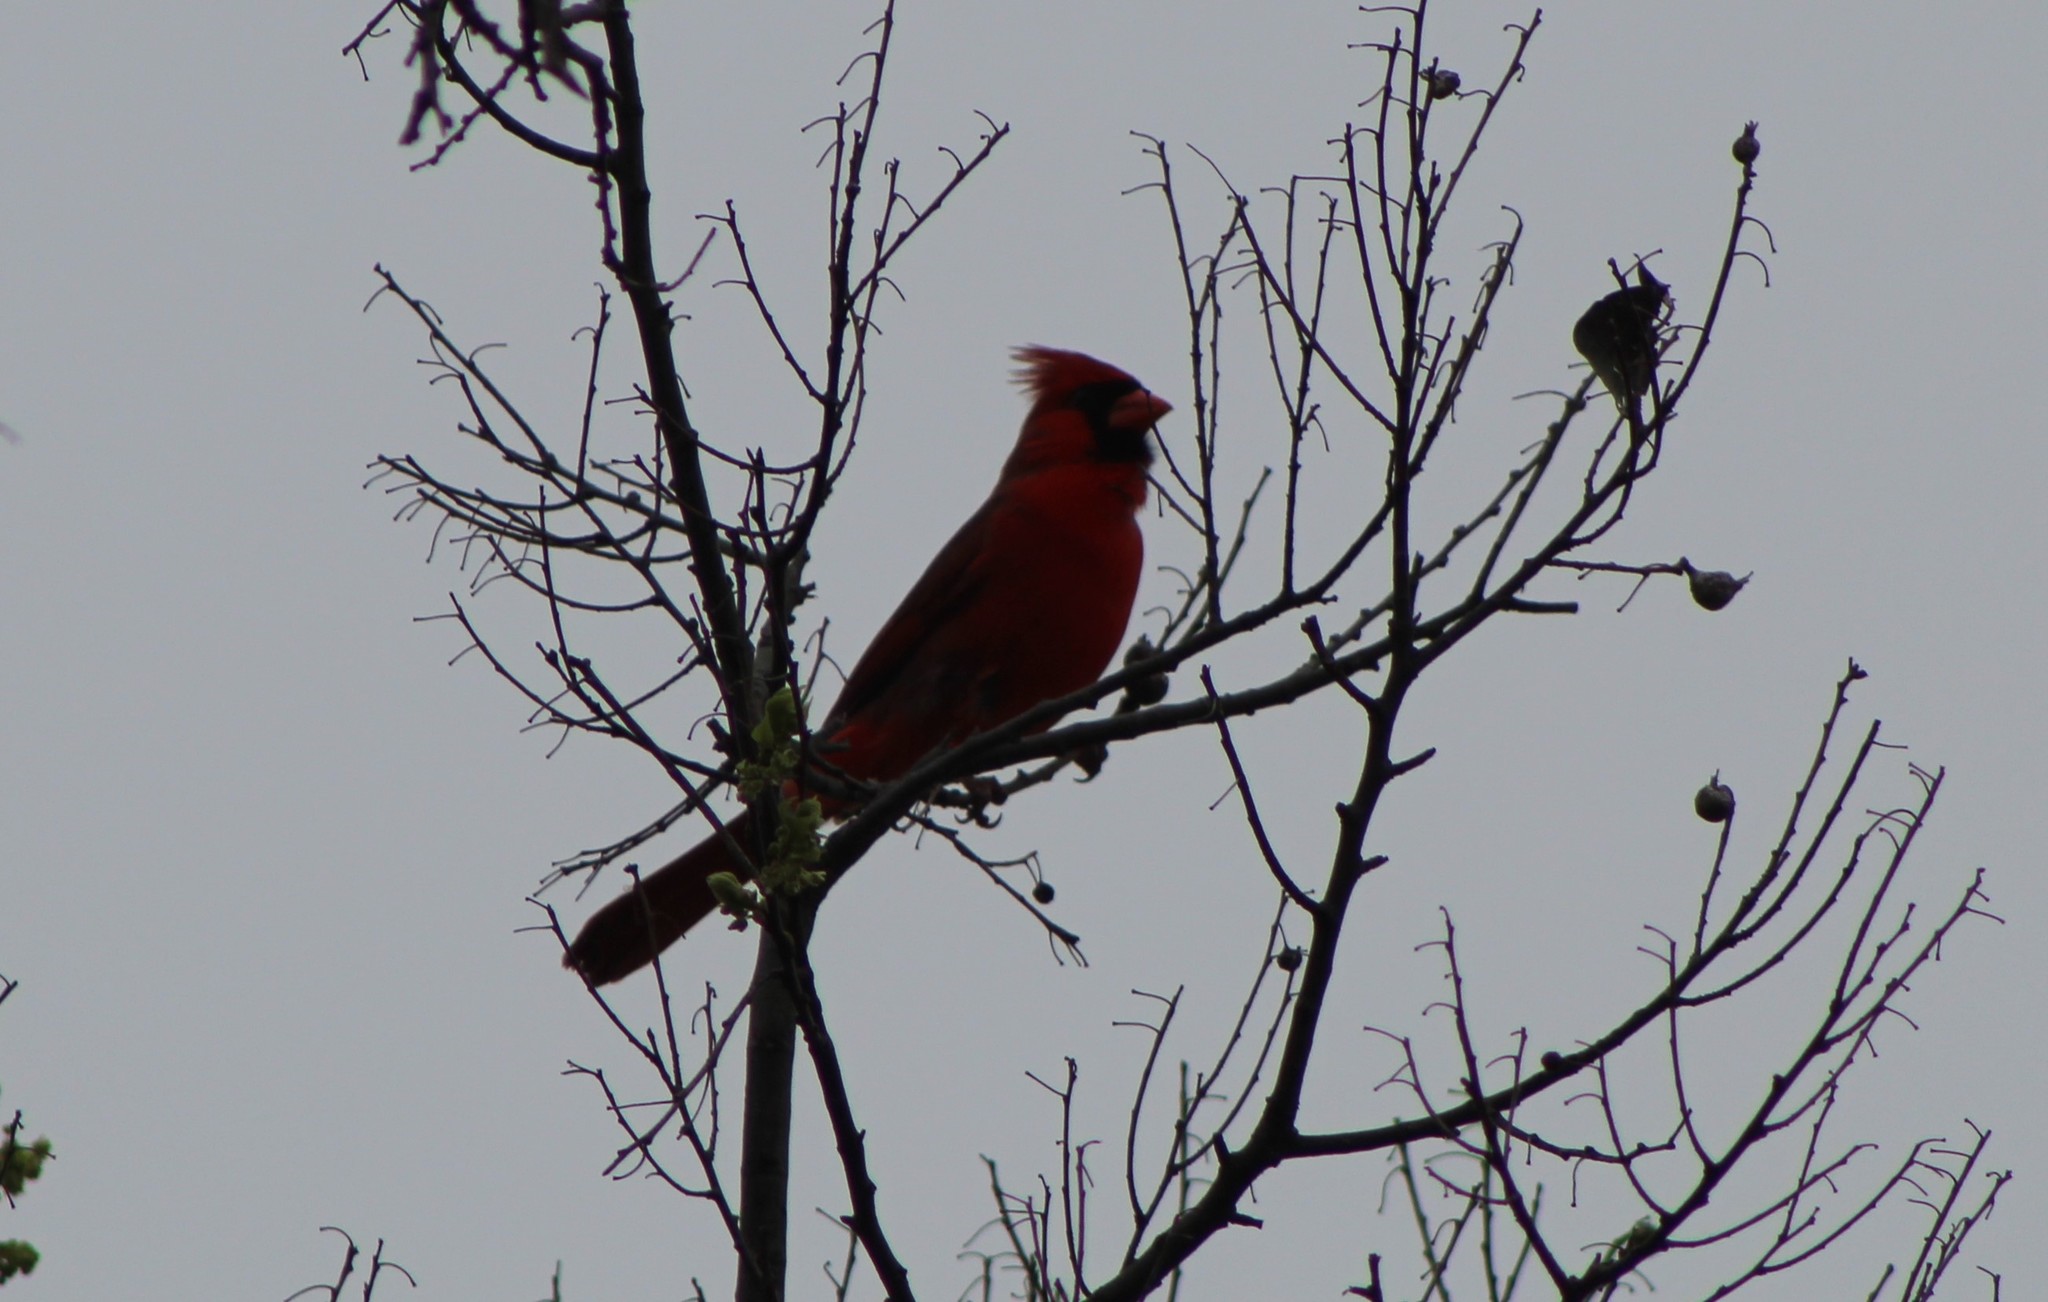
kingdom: Animalia
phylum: Chordata
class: Aves
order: Passeriformes
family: Cardinalidae
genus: Cardinalis
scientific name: Cardinalis cardinalis
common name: Northern cardinal
